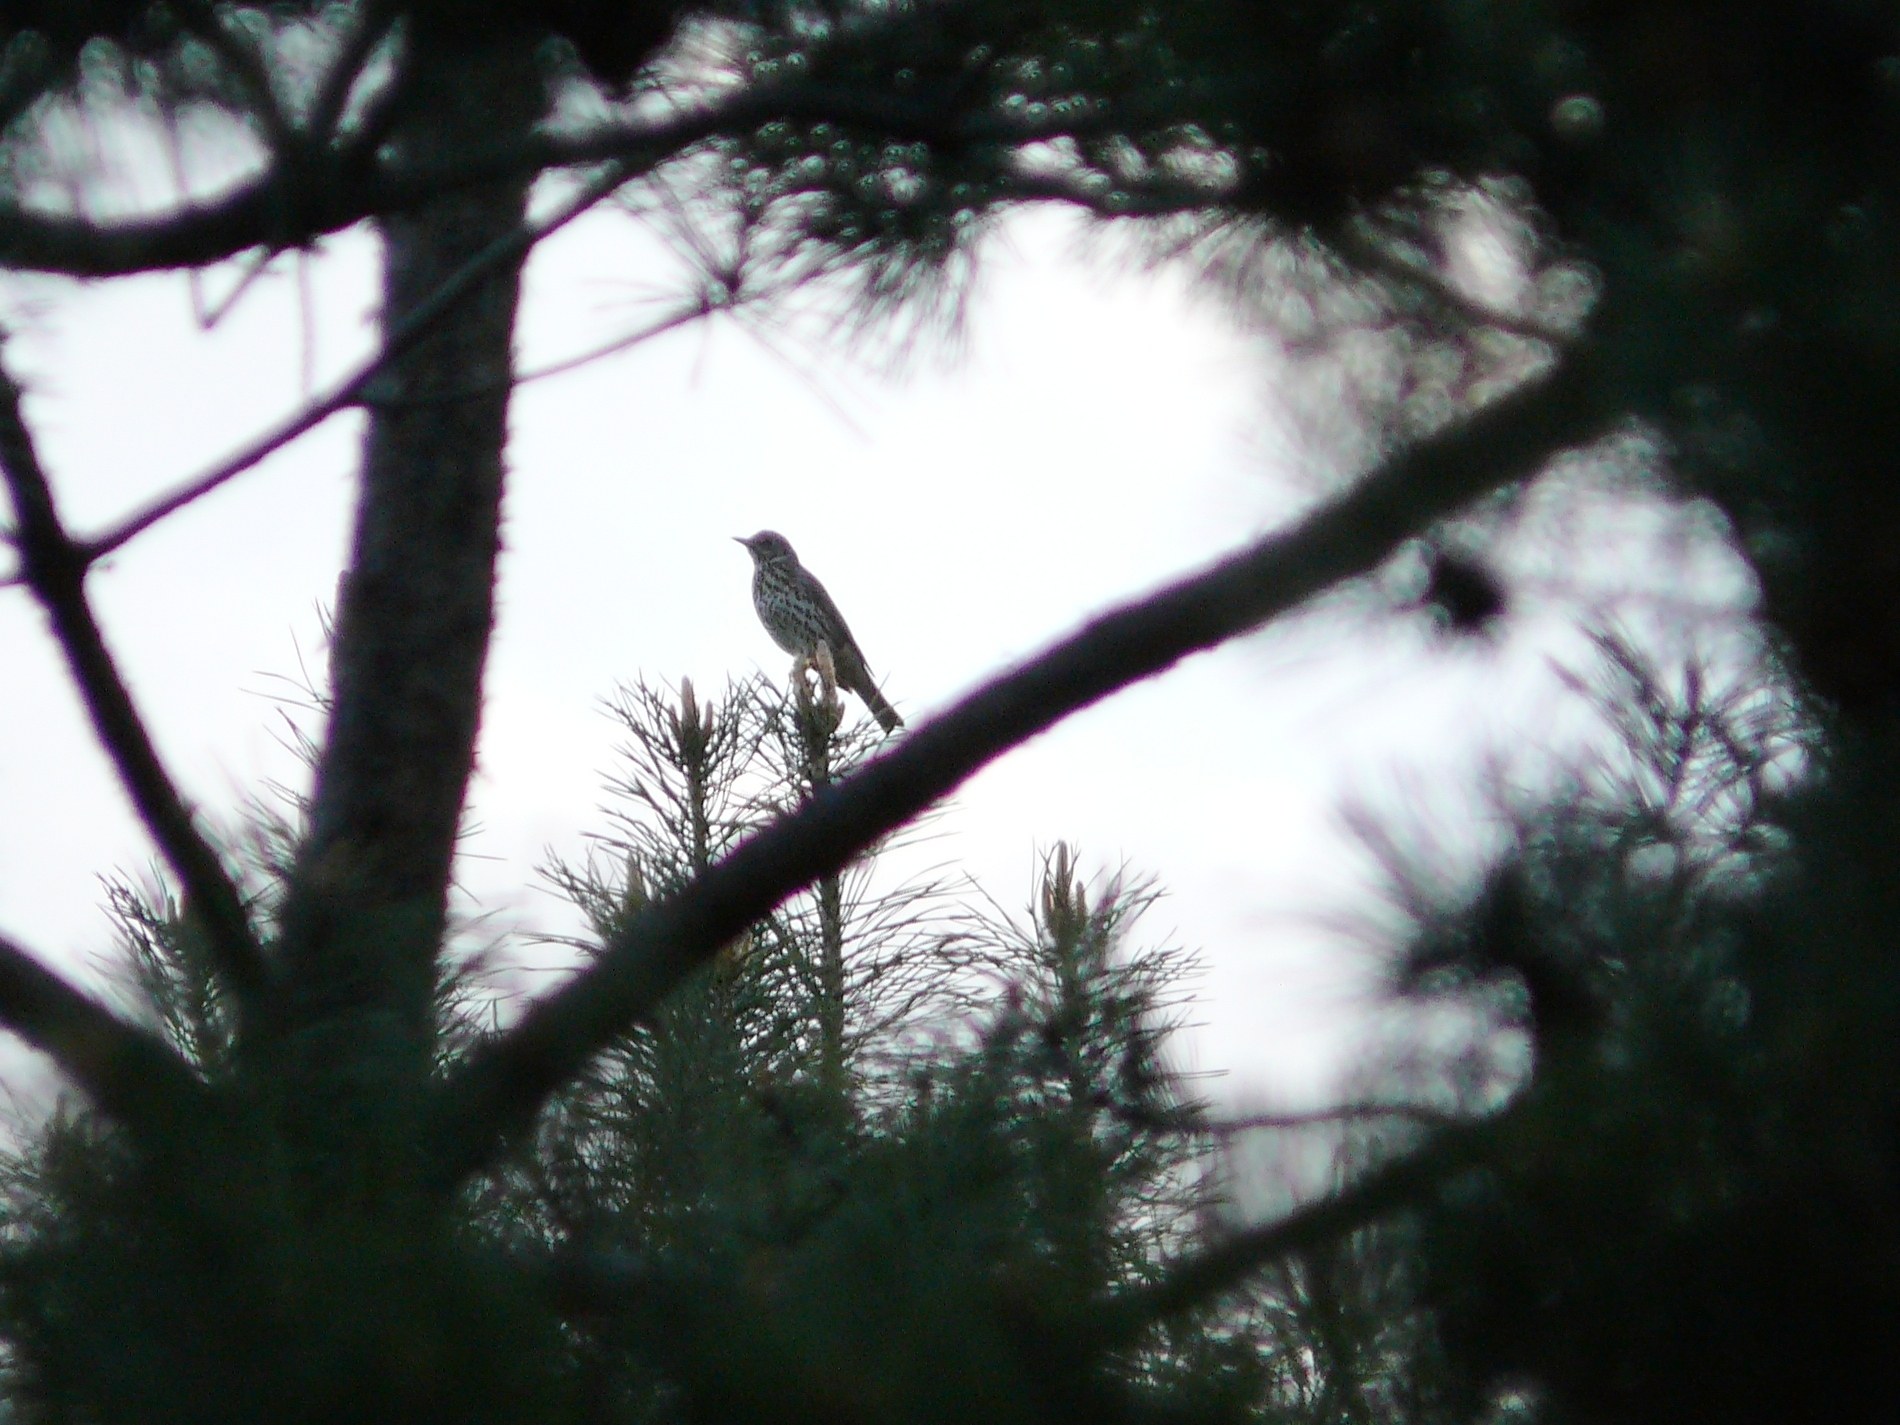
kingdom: Animalia
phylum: Chordata
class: Aves
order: Passeriformes
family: Turdidae
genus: Turdus
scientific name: Turdus philomelos
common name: Song thrush
